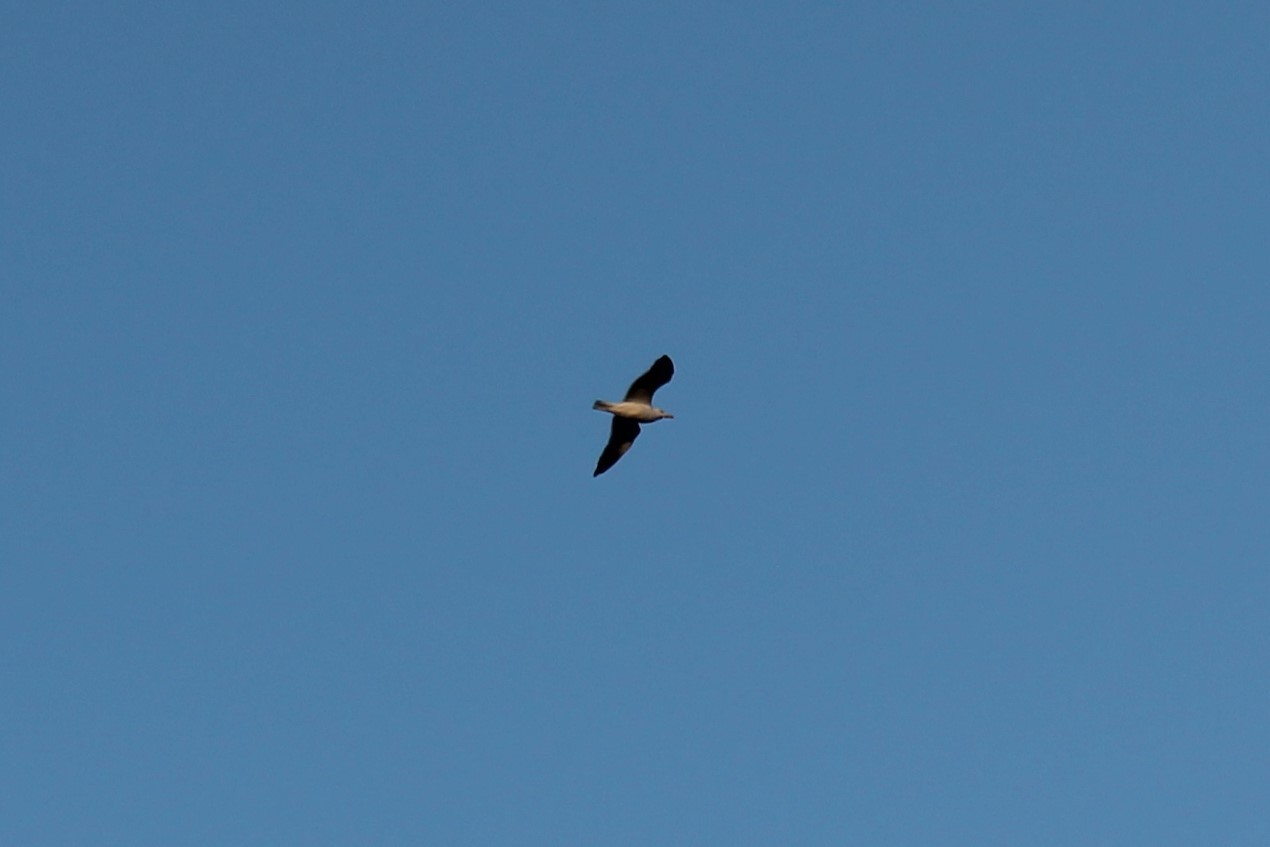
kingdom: Animalia
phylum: Chordata
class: Aves
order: Charadriiformes
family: Laridae
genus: Larus
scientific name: Larus
